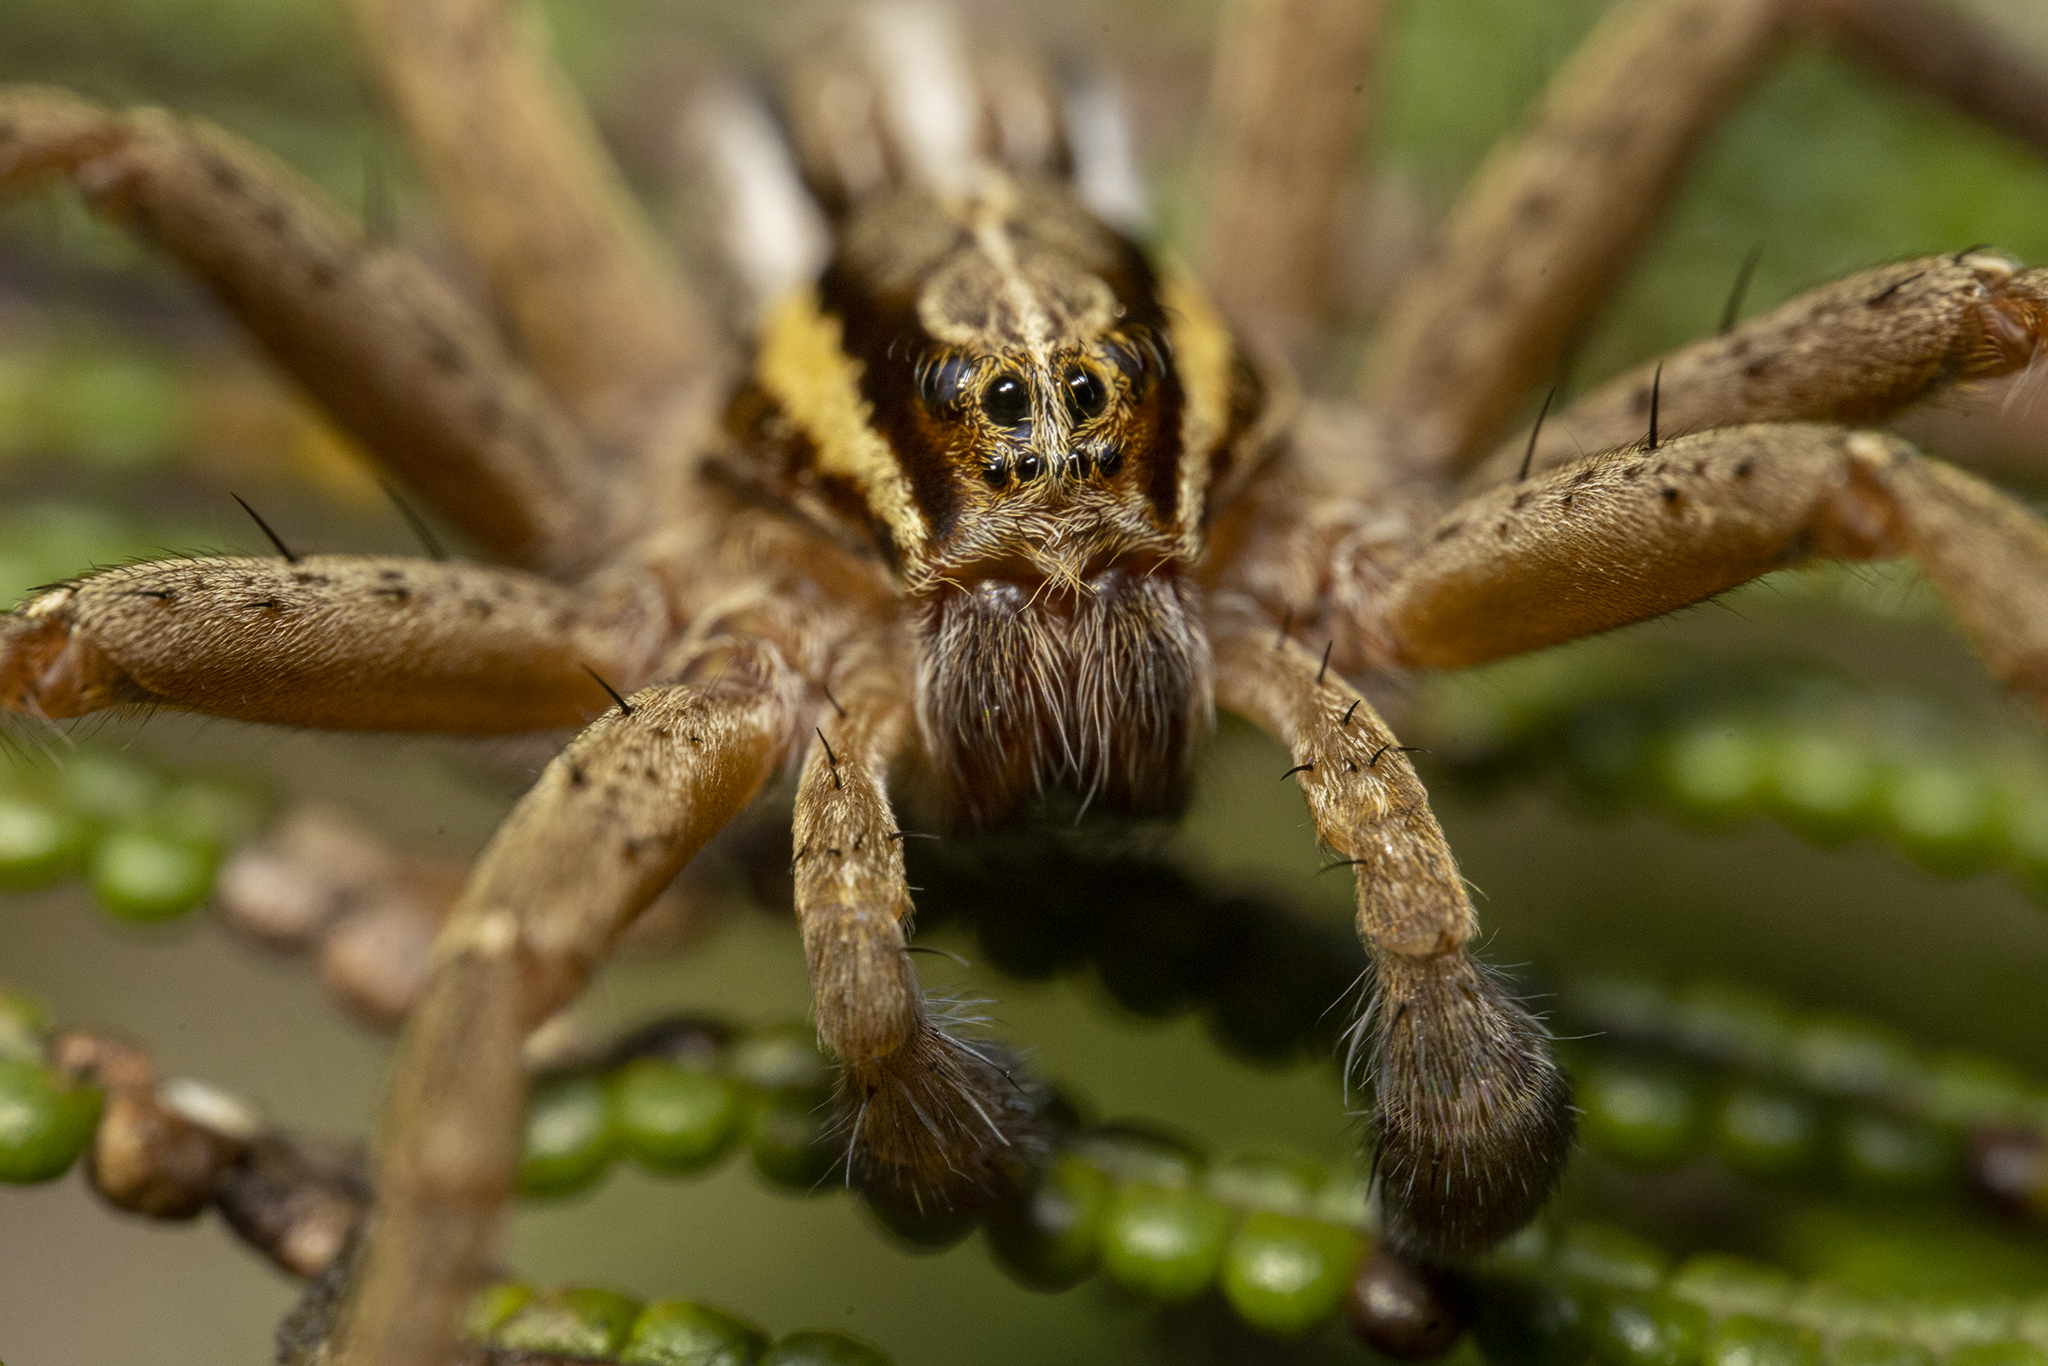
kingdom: Animalia
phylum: Arthropoda
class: Arachnida
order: Araneae
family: Pisauridae
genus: Dolomedes
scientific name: Dolomedes minor
